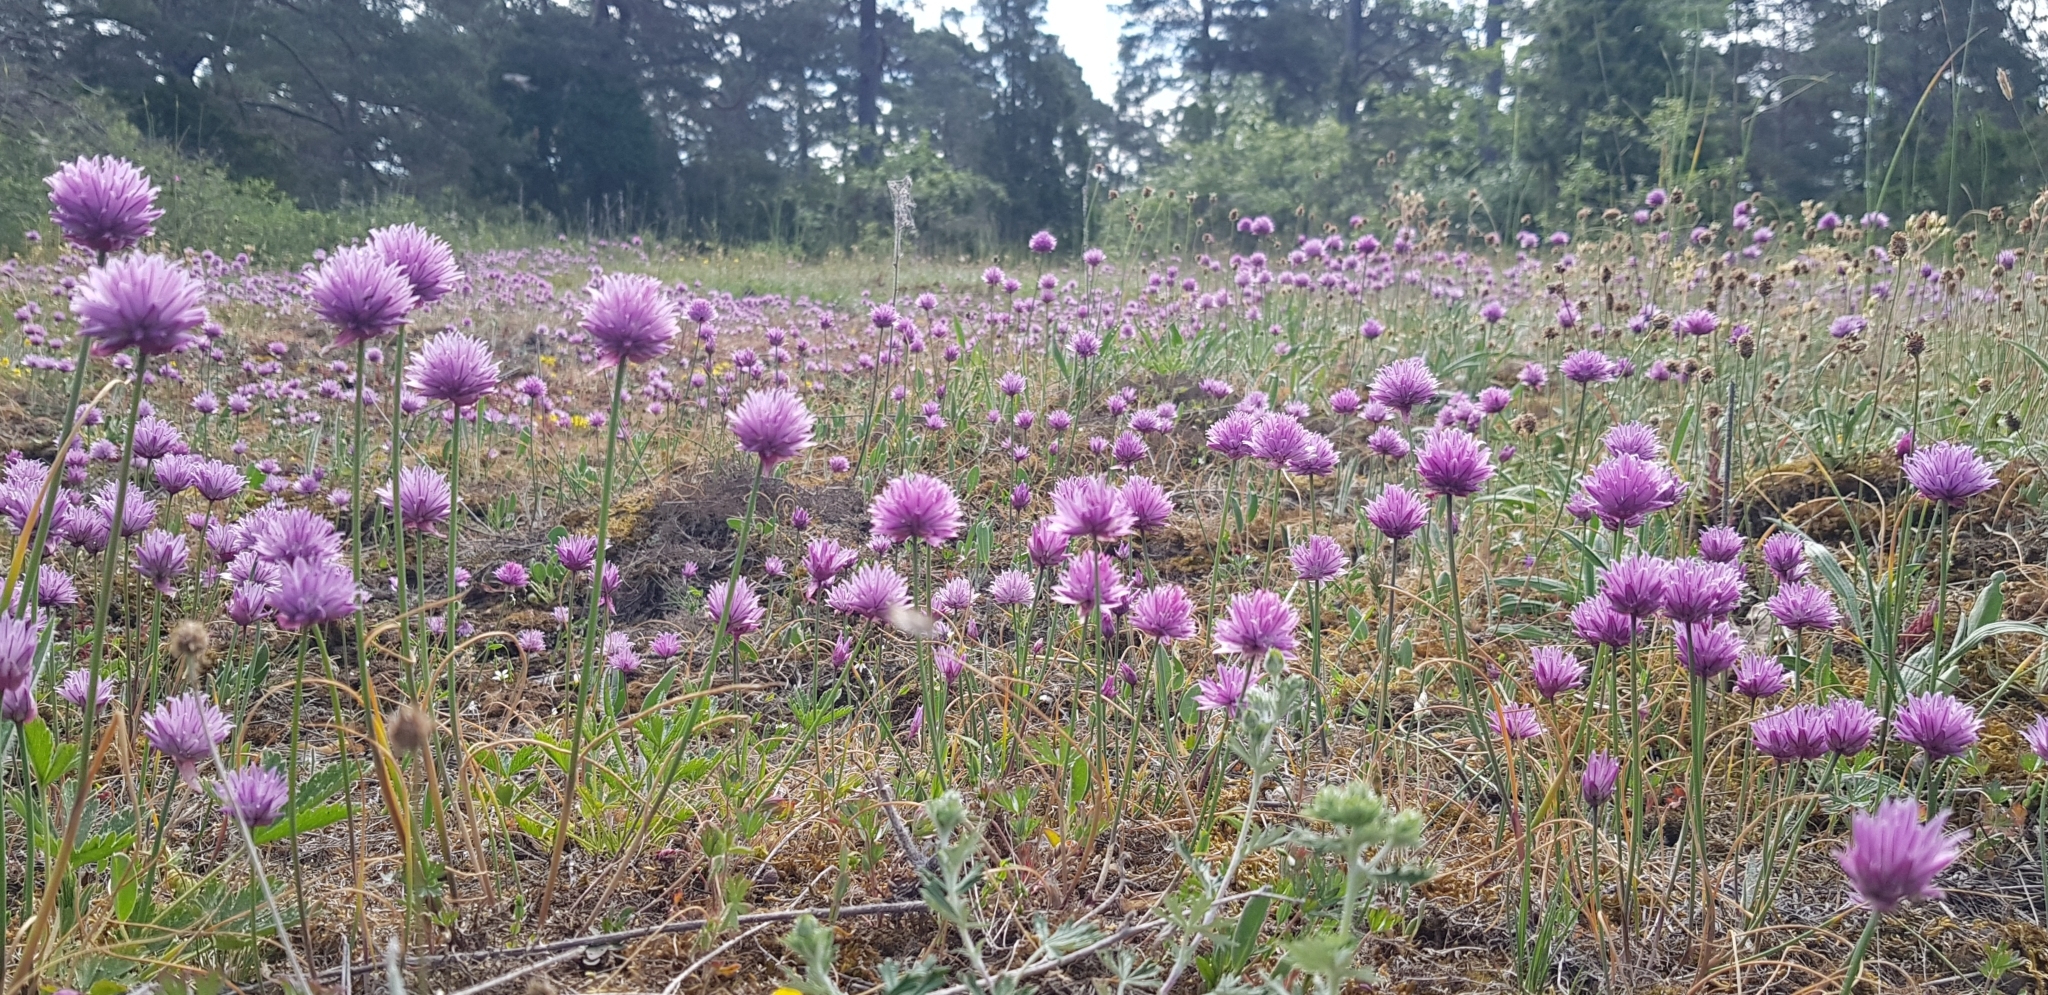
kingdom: Plantae
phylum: Tracheophyta
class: Liliopsida
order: Asparagales
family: Amaryllidaceae
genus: Allium
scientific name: Allium schoenoprasum
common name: Chives
